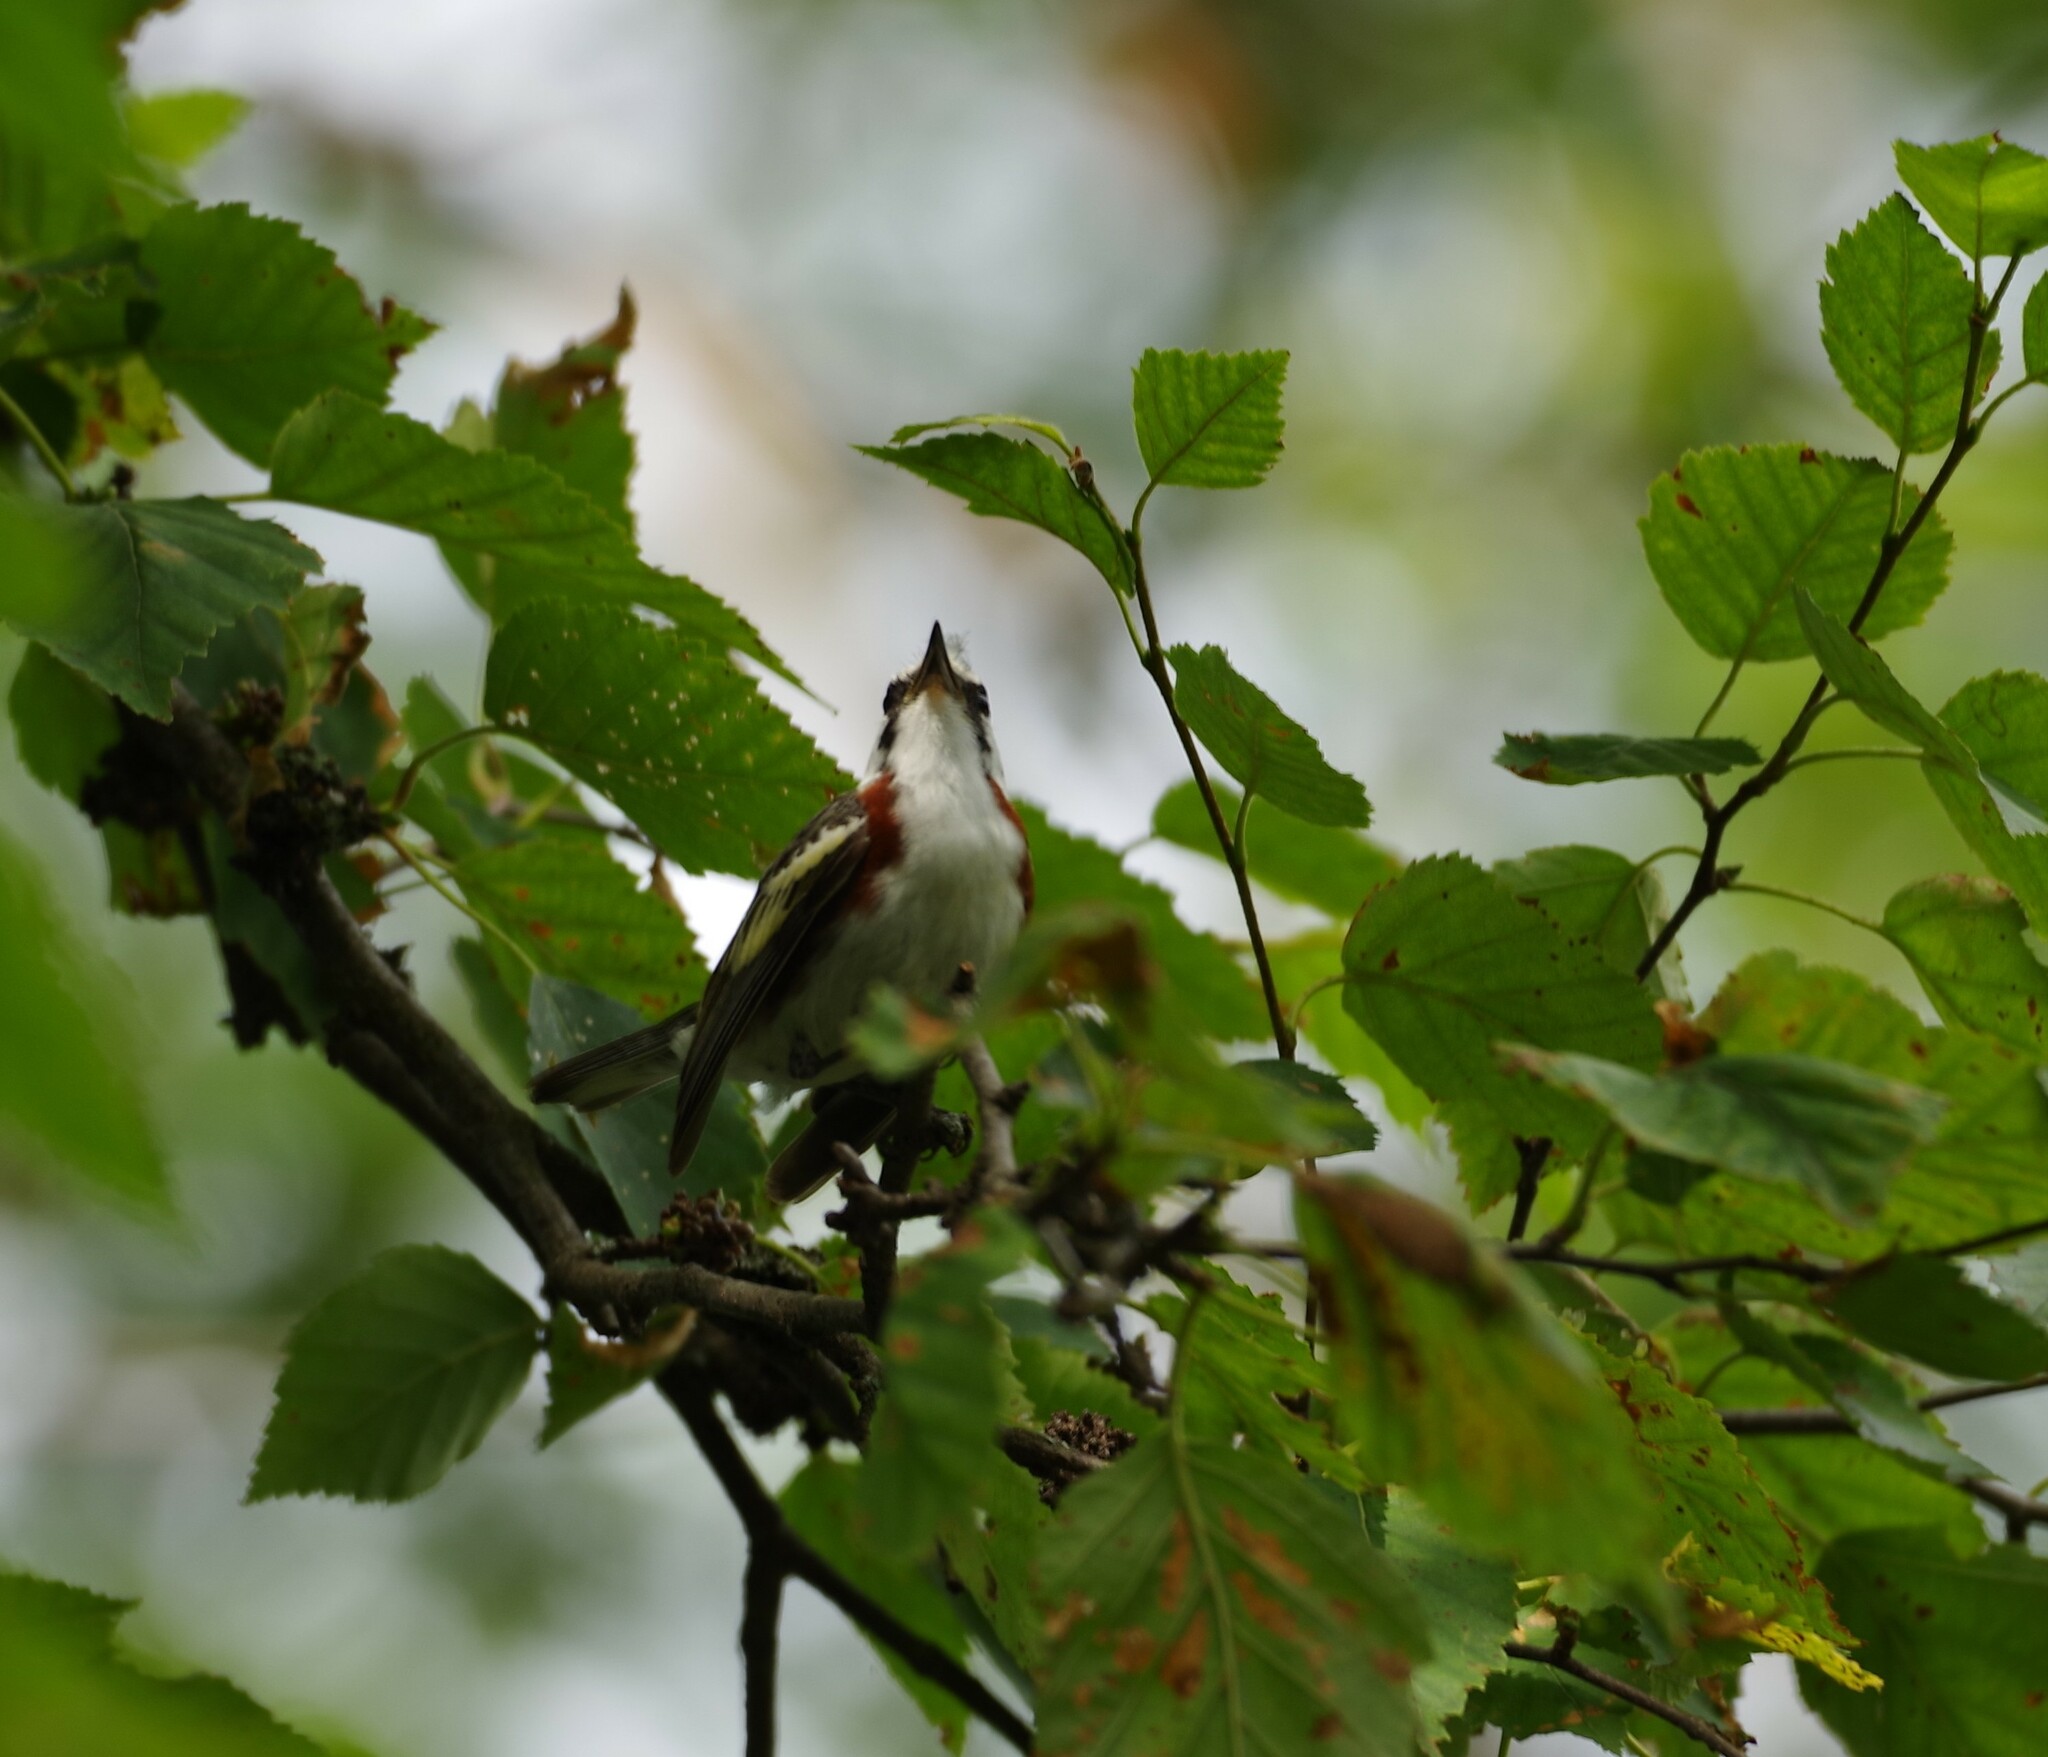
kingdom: Animalia
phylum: Chordata
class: Aves
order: Passeriformes
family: Parulidae
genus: Setophaga
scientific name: Setophaga pensylvanica
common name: Chestnut-sided warbler
